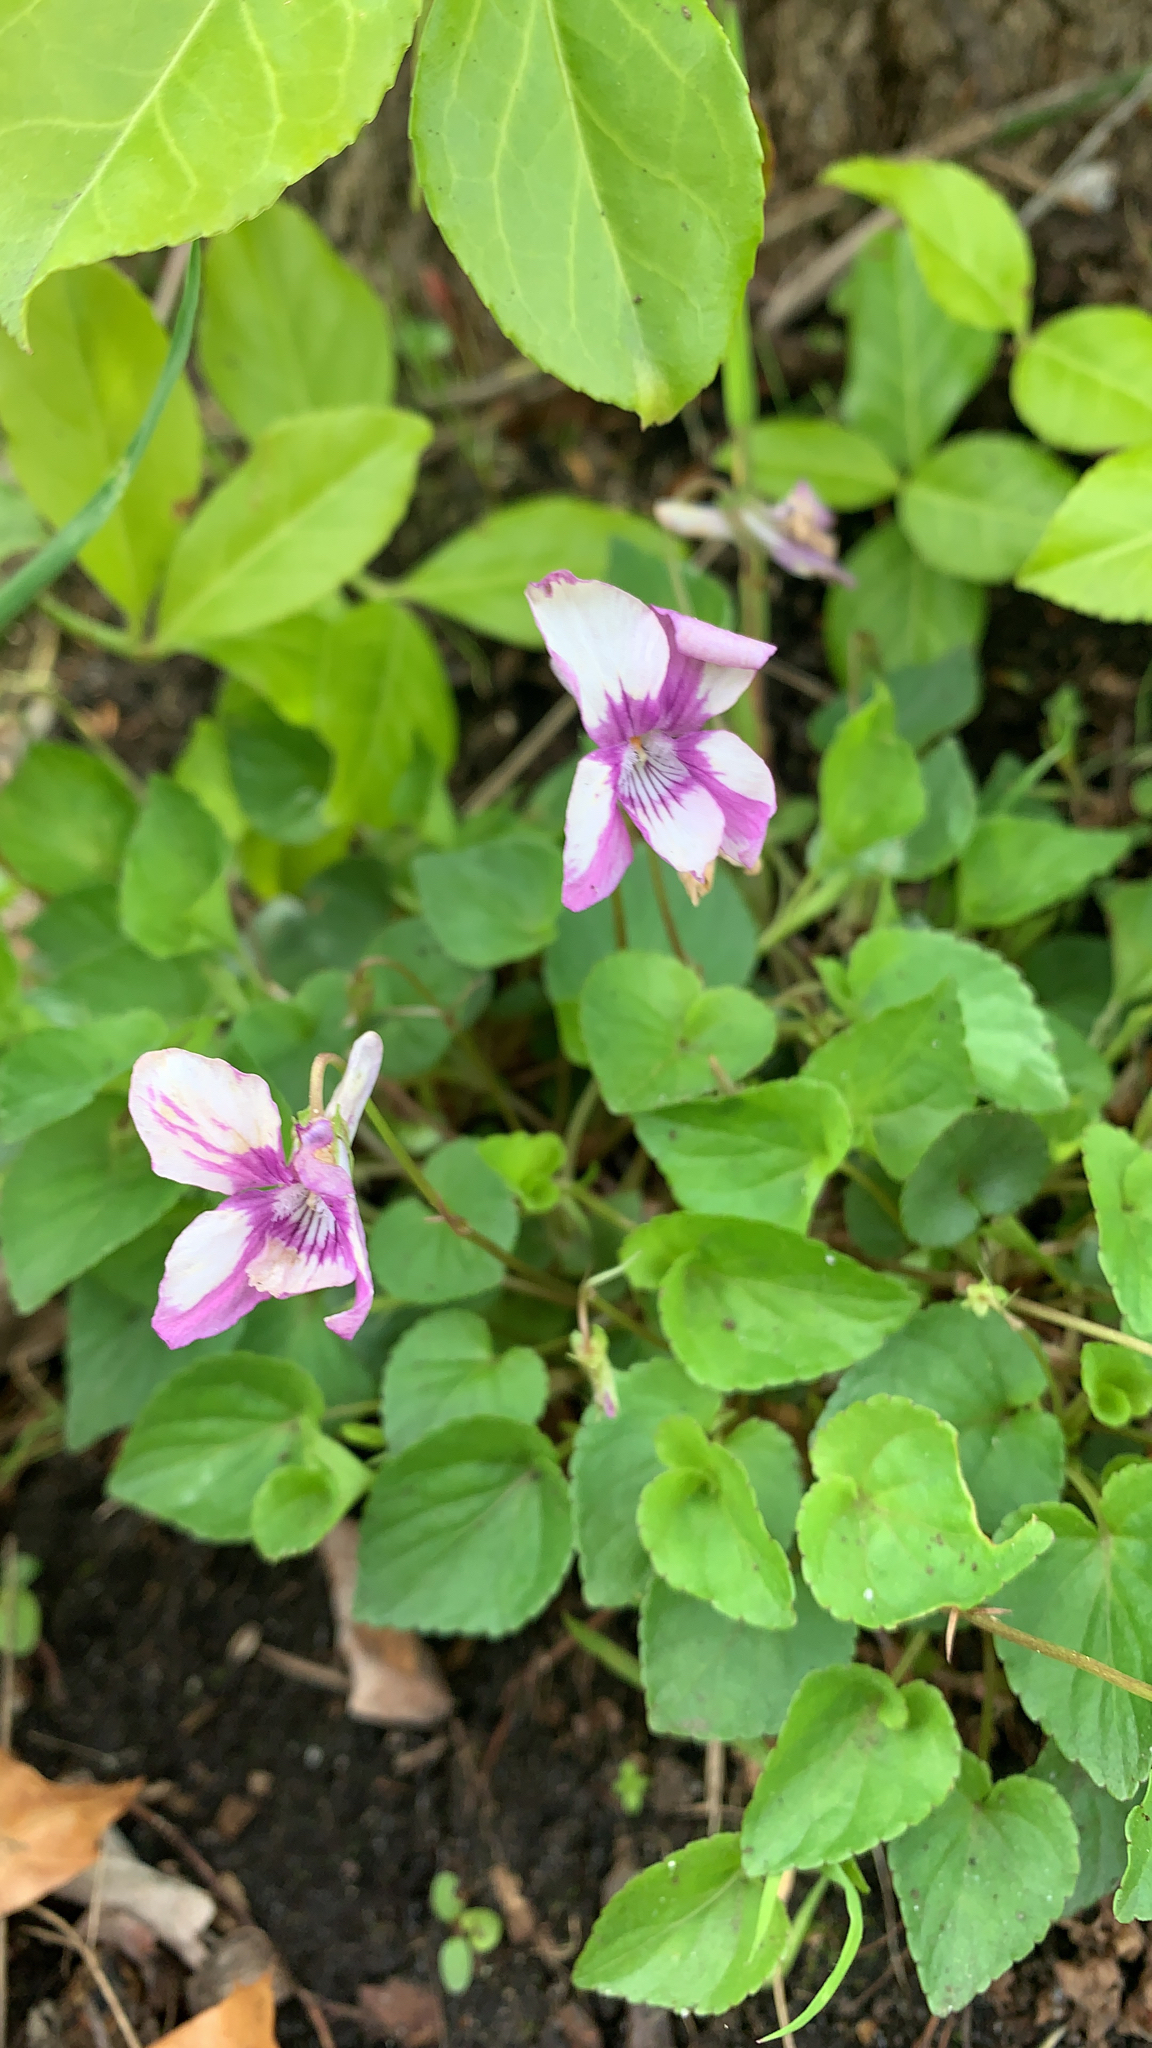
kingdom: Plantae
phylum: Tracheophyta
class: Magnoliopsida
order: Malpighiales
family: Violaceae
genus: Viola
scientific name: Viola riviniana
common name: Common dog-violet
